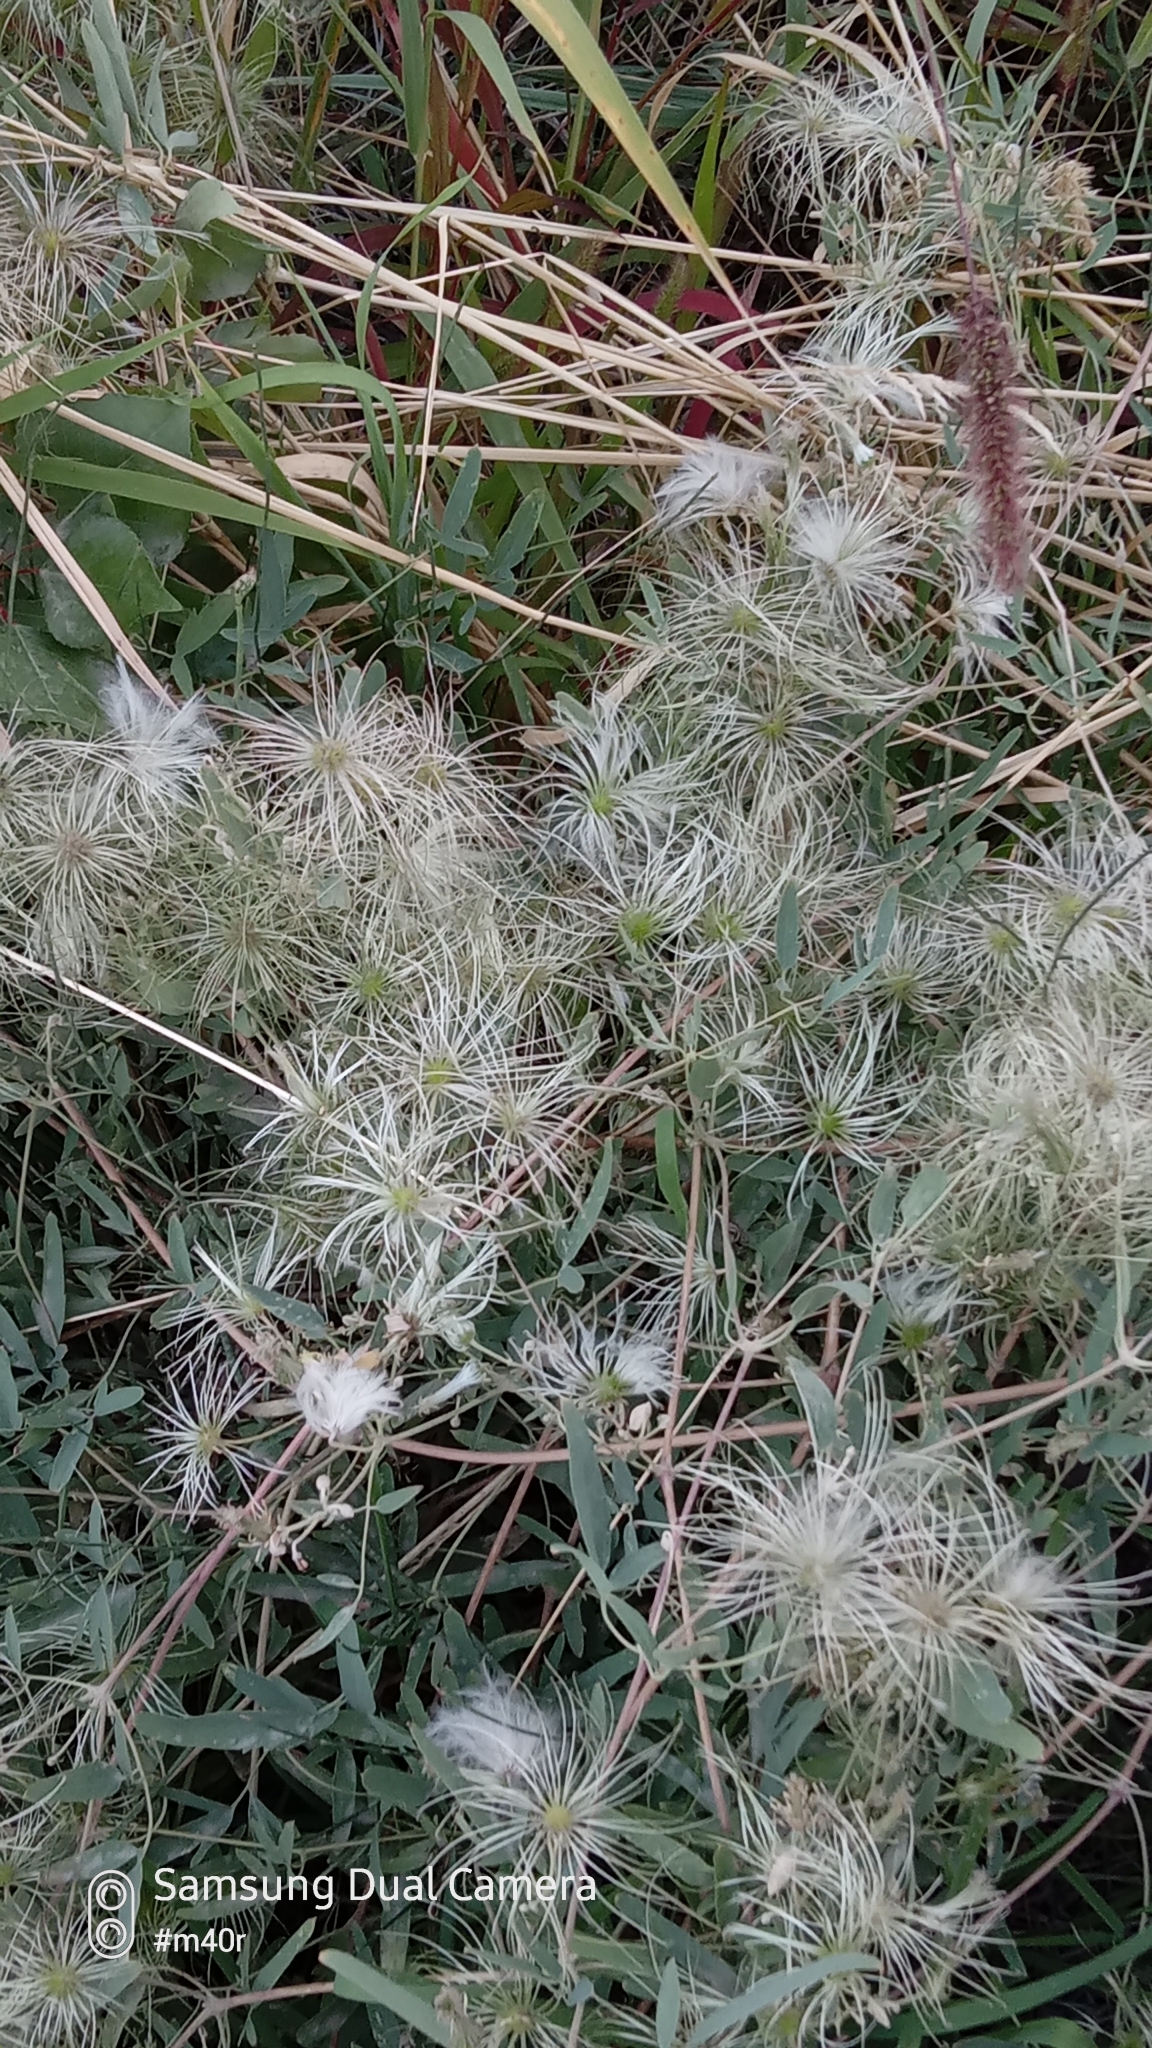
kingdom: Plantae
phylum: Tracheophyta
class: Magnoliopsida
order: Ranunculales
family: Ranunculaceae
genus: Clematis
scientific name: Clematis orientalis
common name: Oriental virgin's-bower
